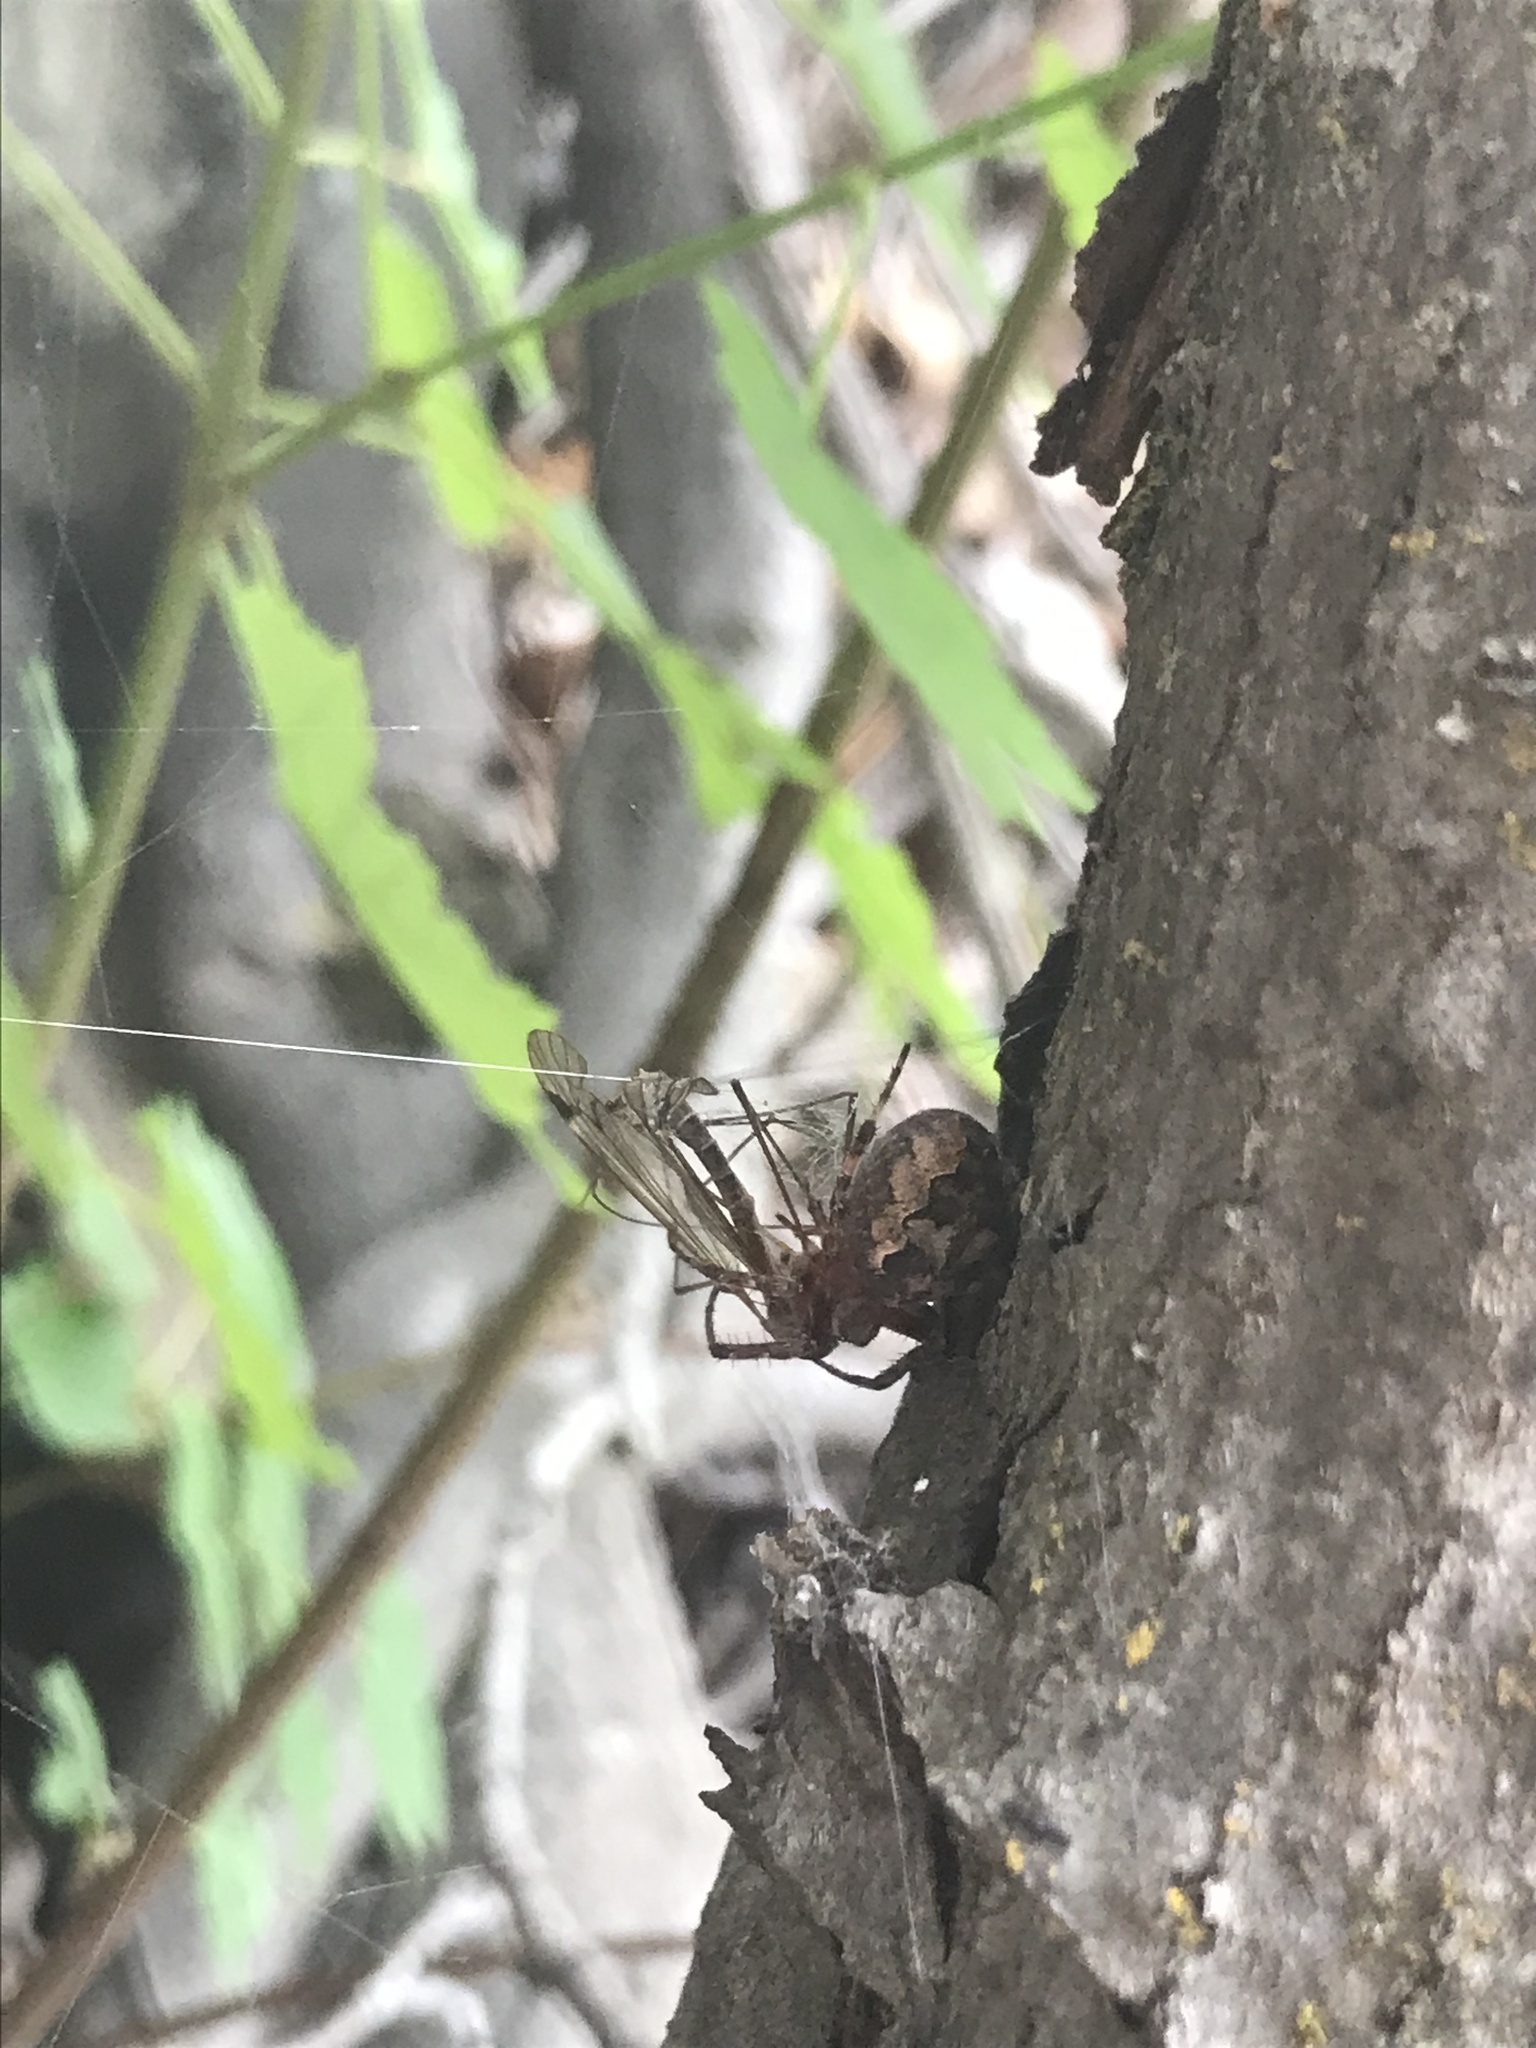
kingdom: Animalia
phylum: Arthropoda
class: Arachnida
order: Araneae
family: Araneidae
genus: Larinioides
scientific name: Larinioides patagiatus
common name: Ornamental orbweaver
